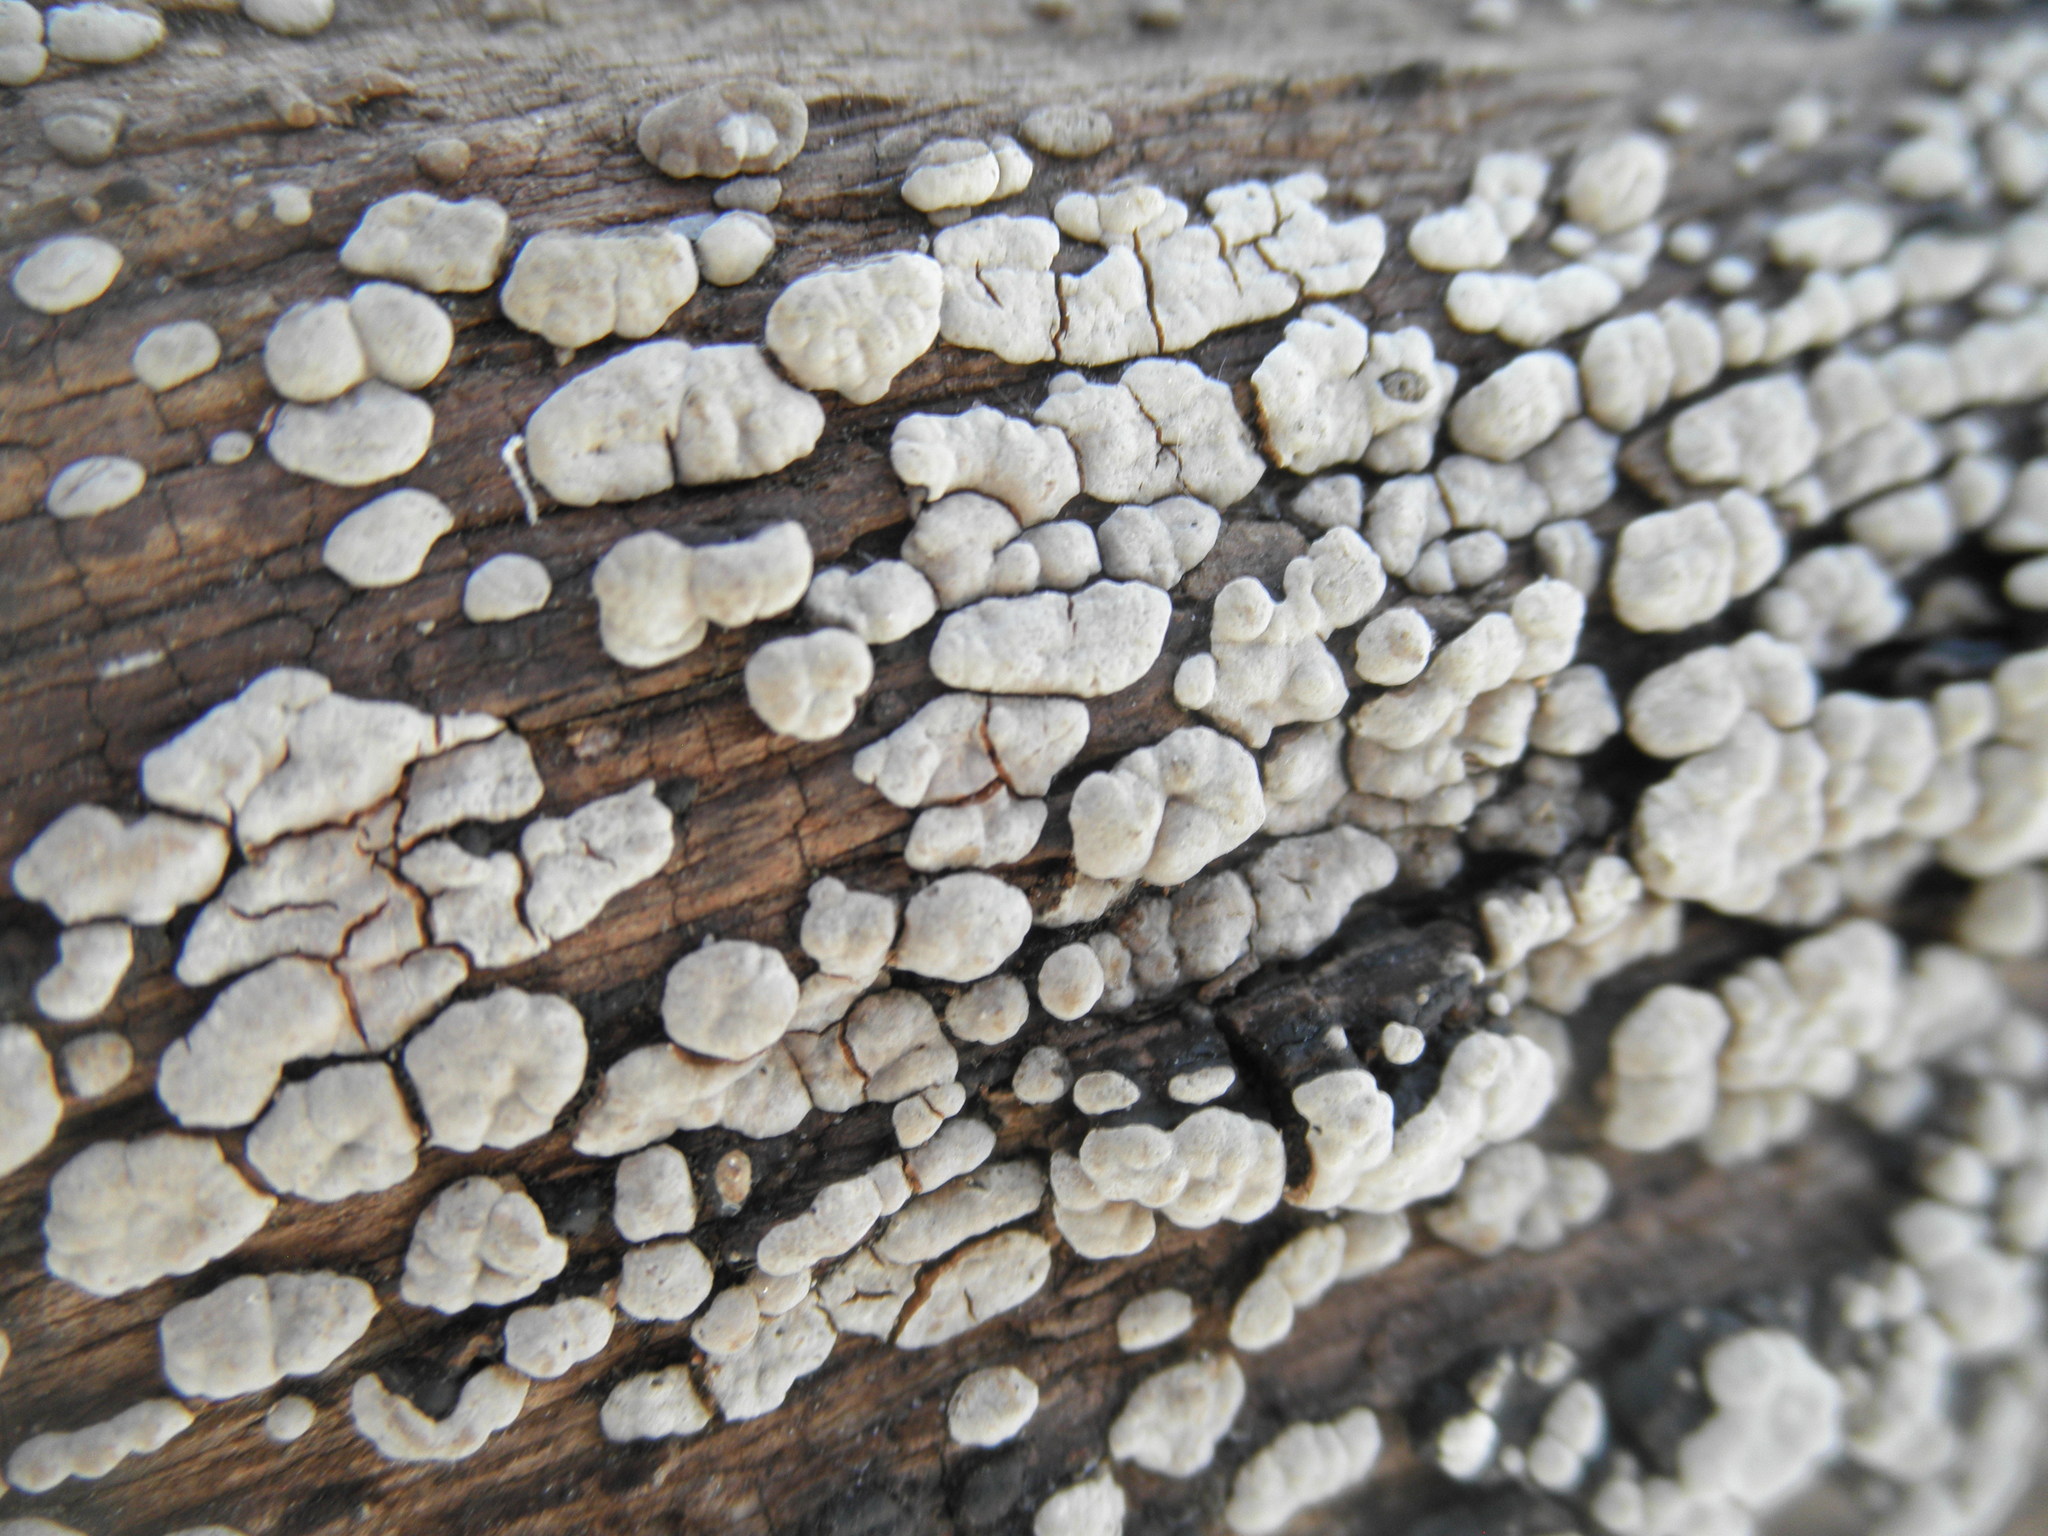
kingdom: Fungi
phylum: Basidiomycota
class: Agaricomycetes
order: Russulales
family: Stereaceae
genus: Xylobolus
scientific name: Xylobolus frustulatus
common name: Ceramic parchment
